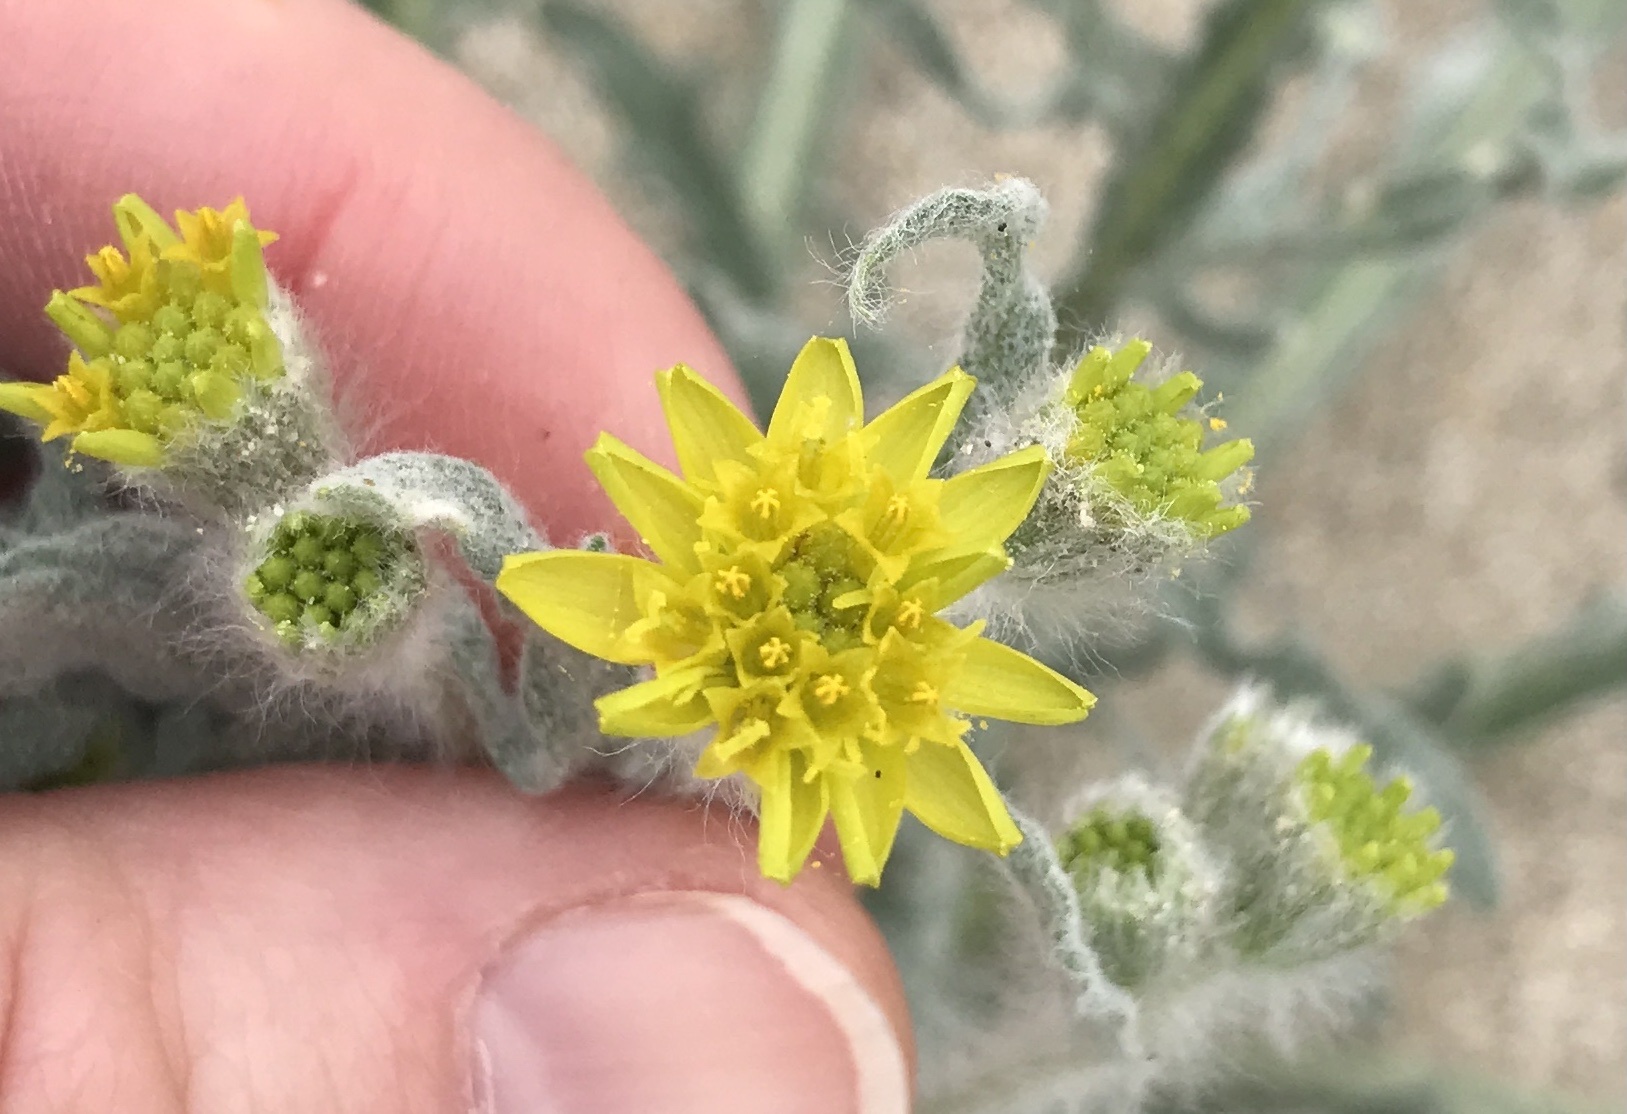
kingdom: Plantae
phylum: Tracheophyta
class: Magnoliopsida
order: Asterales
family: Asteraceae
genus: Baileya
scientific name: Baileya pauciradiata
